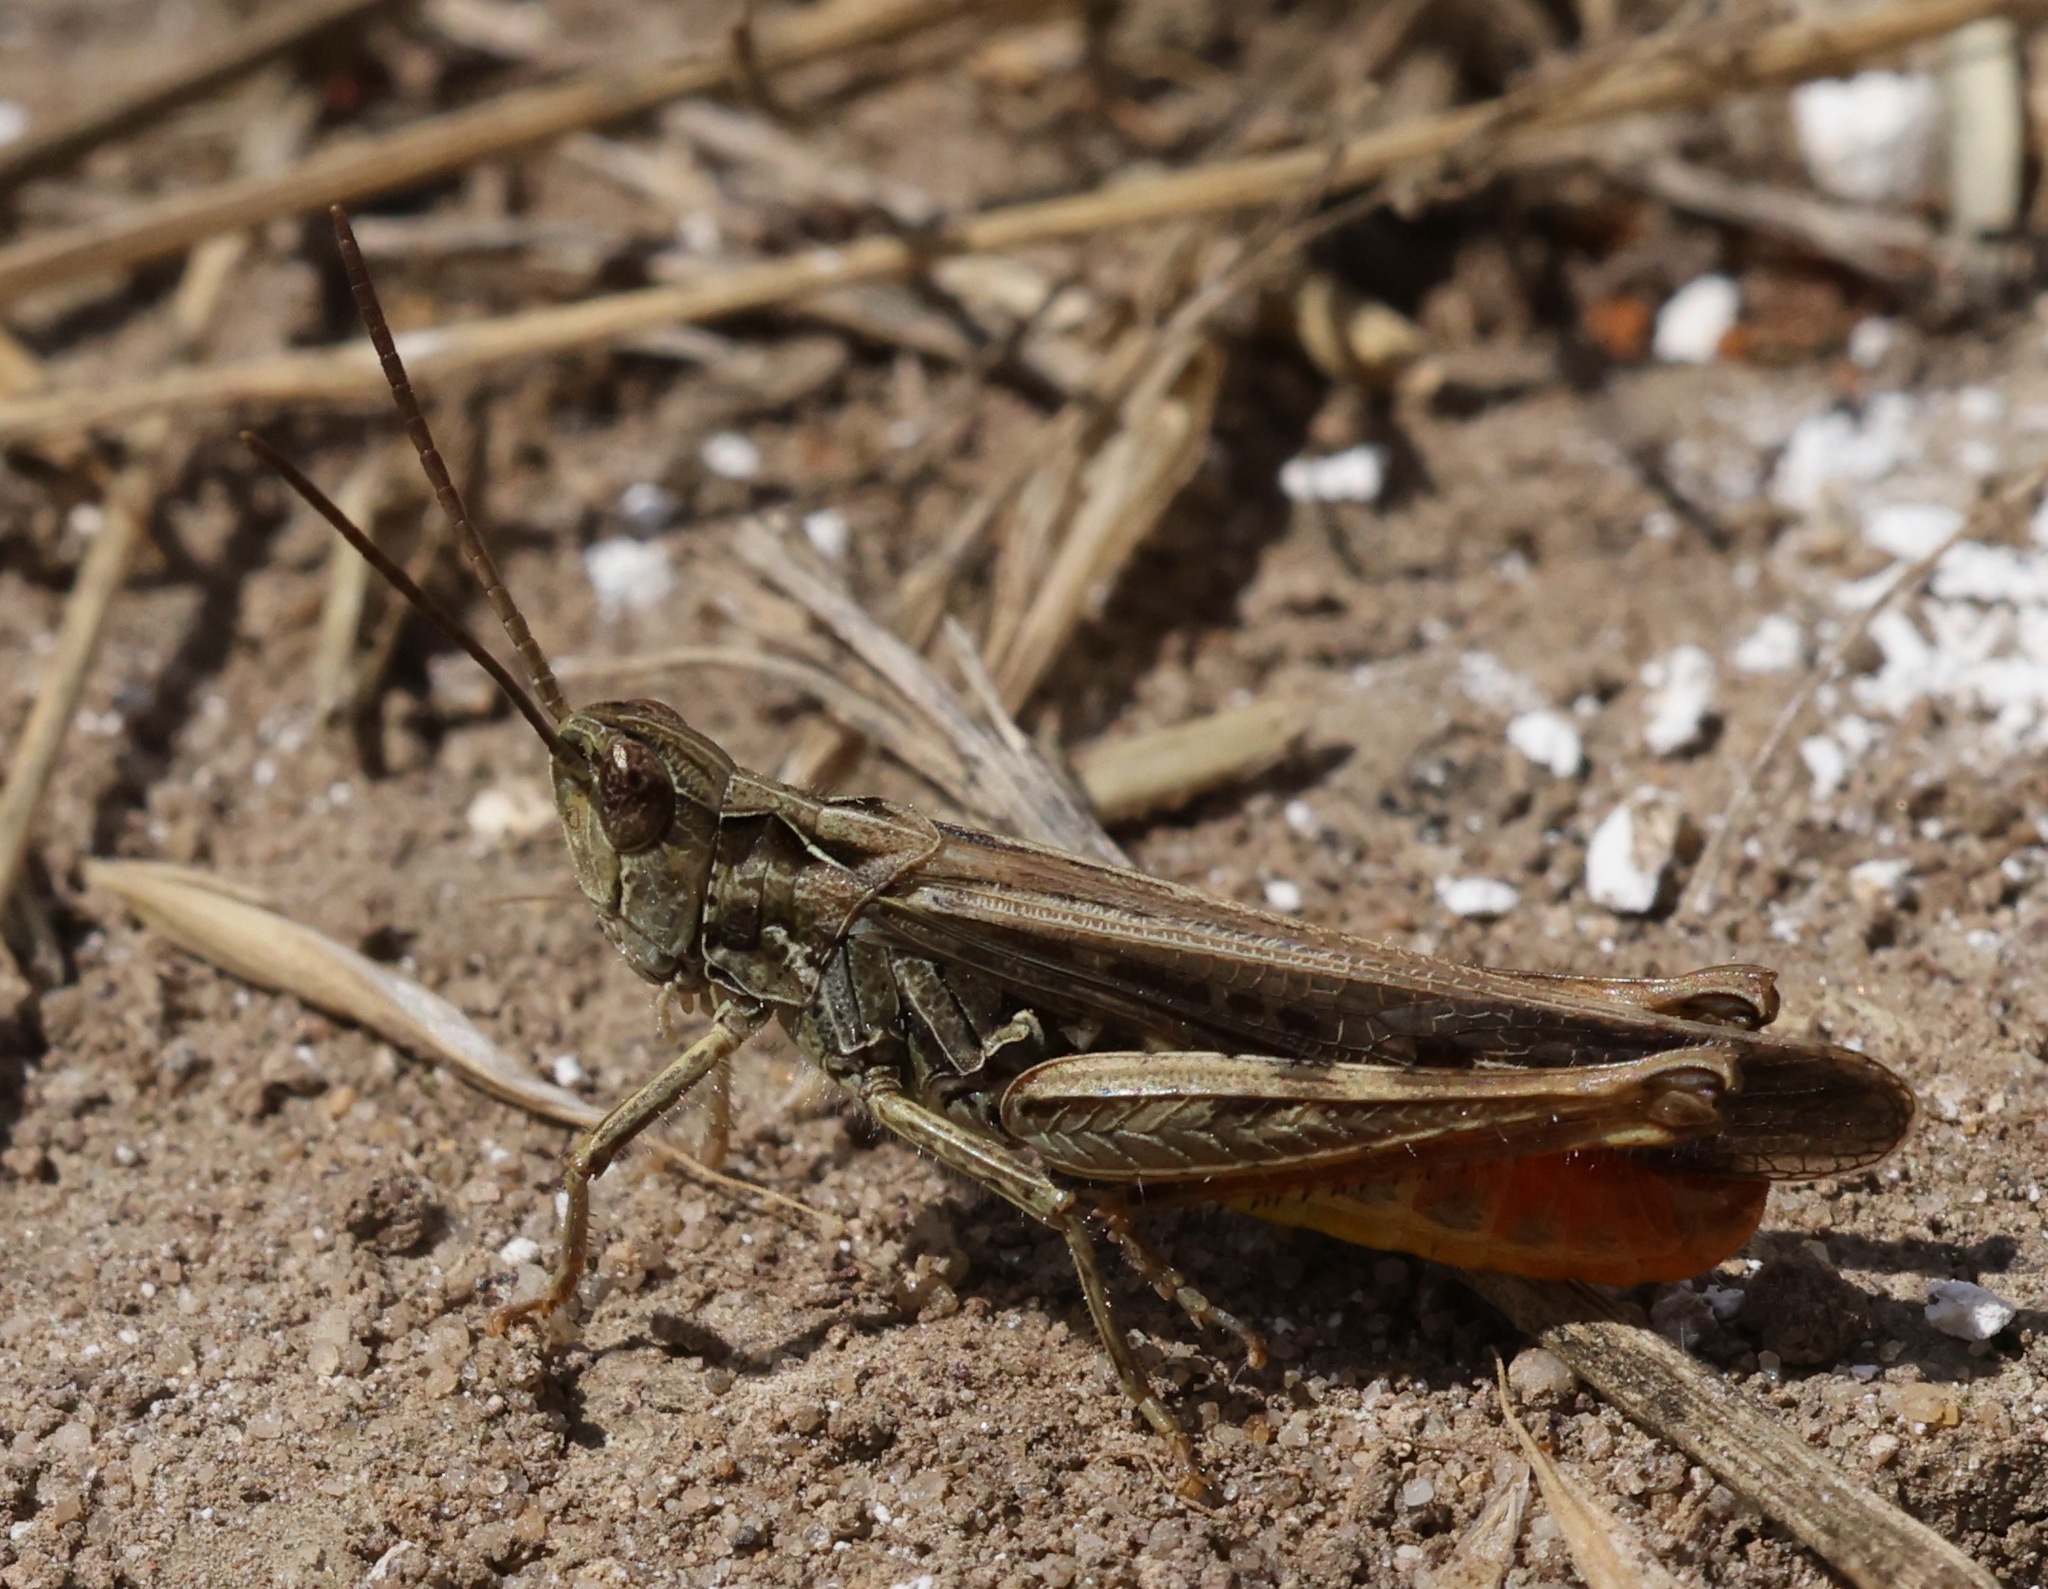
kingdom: Animalia
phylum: Arthropoda
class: Insecta
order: Orthoptera
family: Acrididae
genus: Chorthippus
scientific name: Chorthippus brunneus
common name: Field grasshopper
